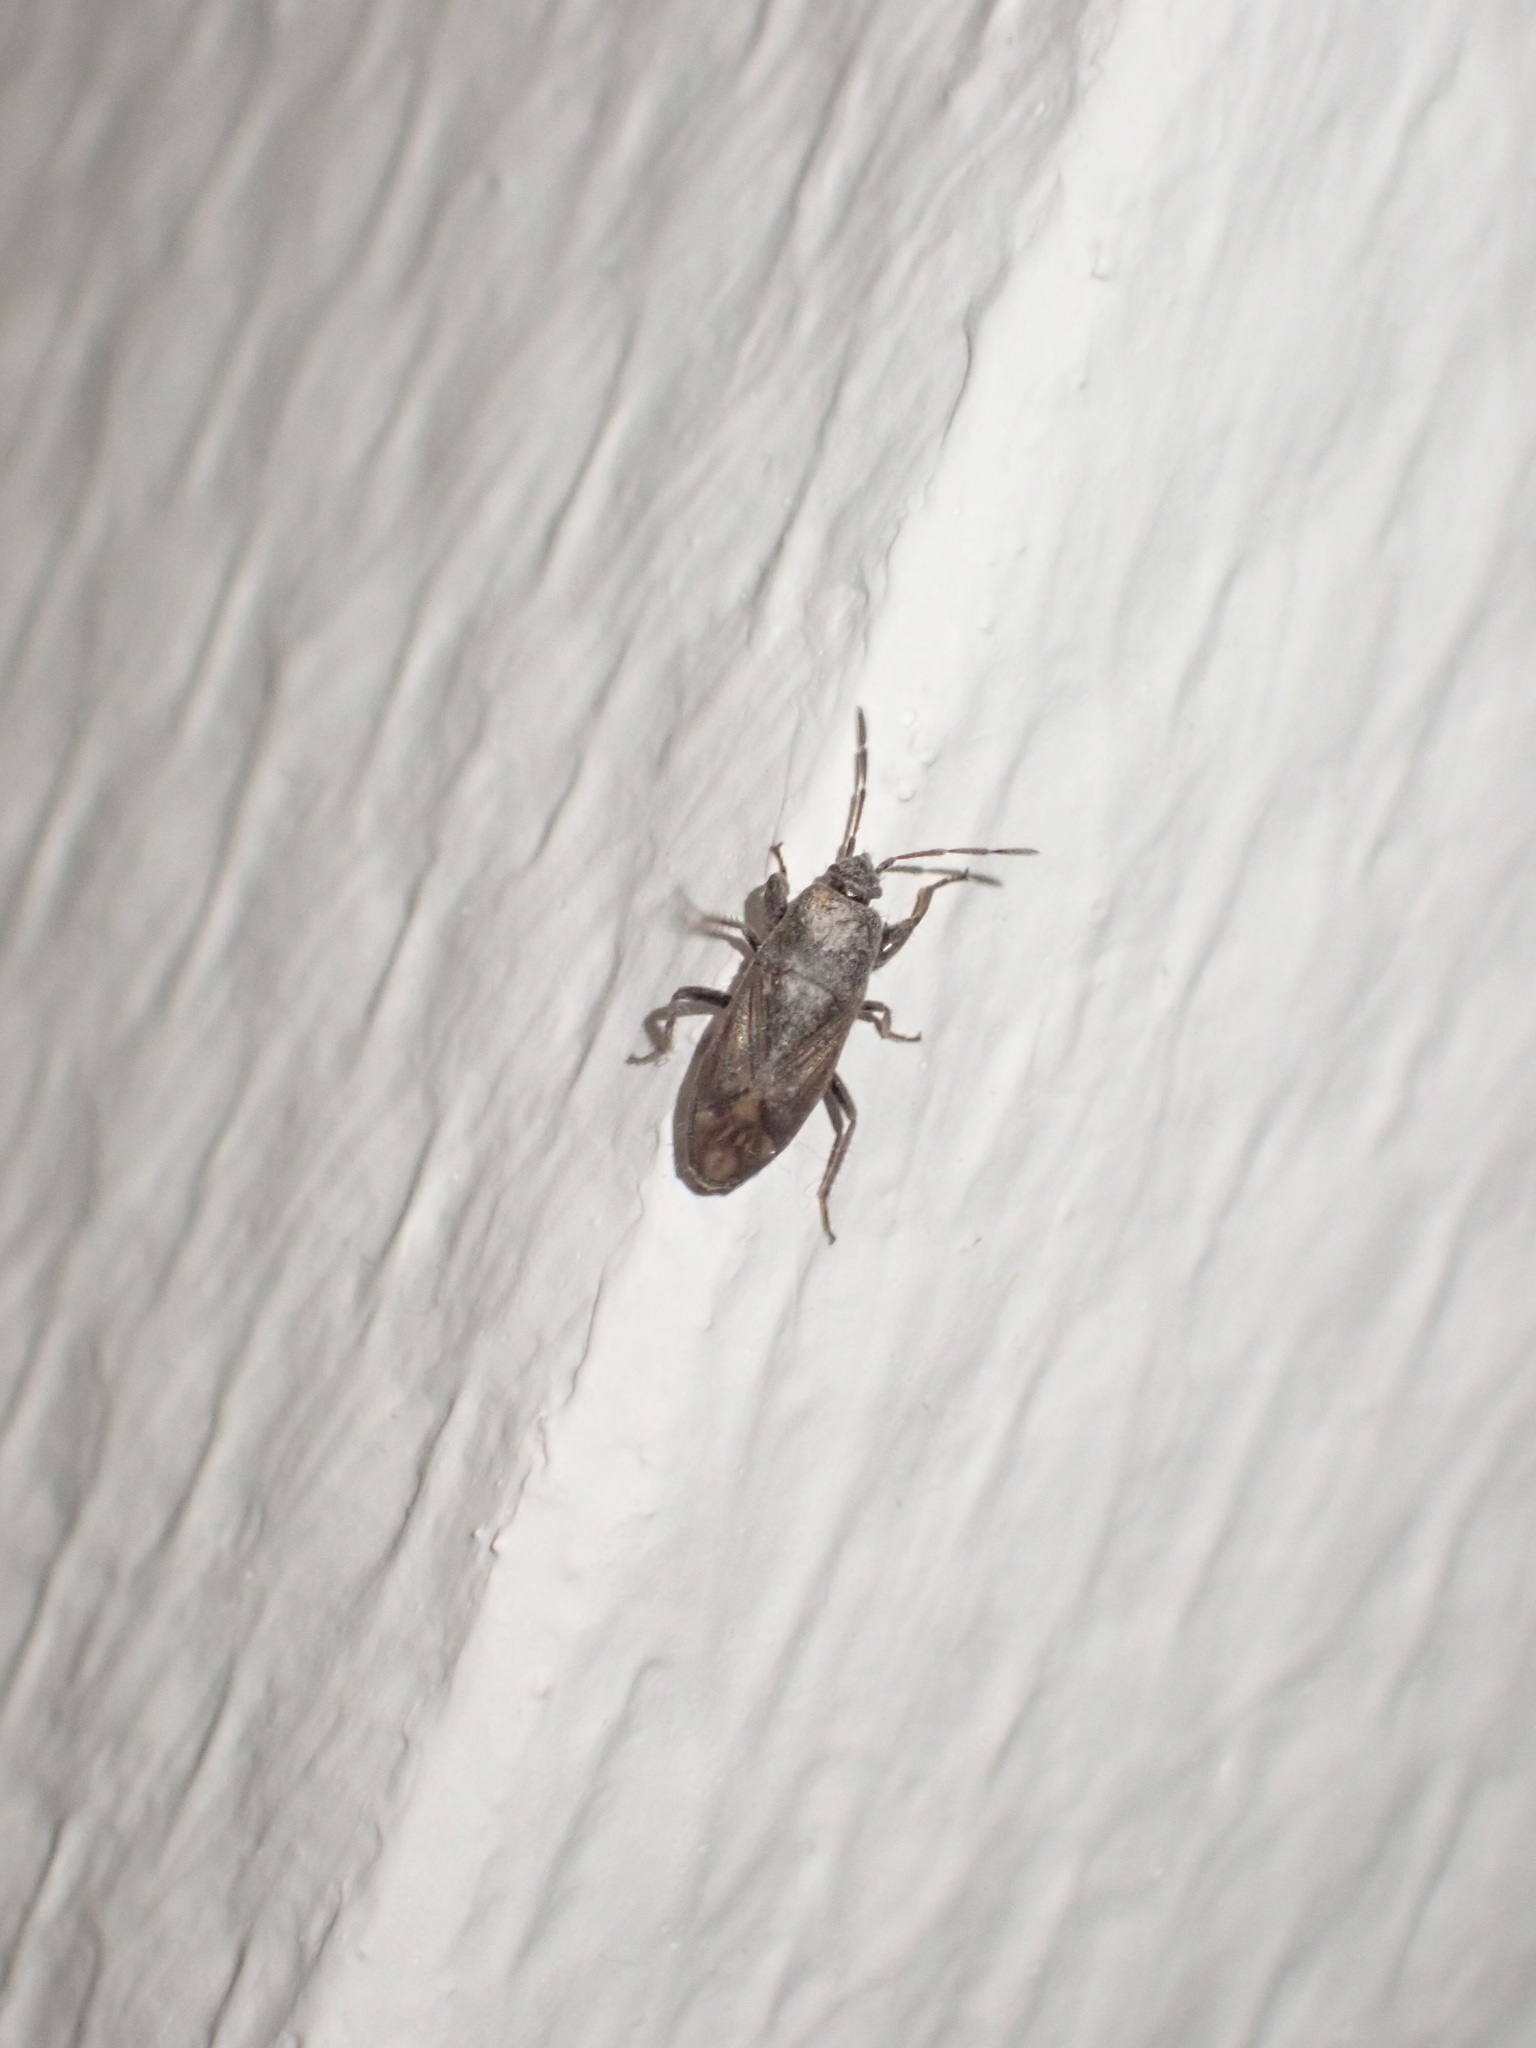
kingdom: Animalia
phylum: Arthropoda
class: Insecta
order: Hemiptera
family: Rhyparochromidae
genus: Megalonotus
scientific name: Megalonotus emarginatus
